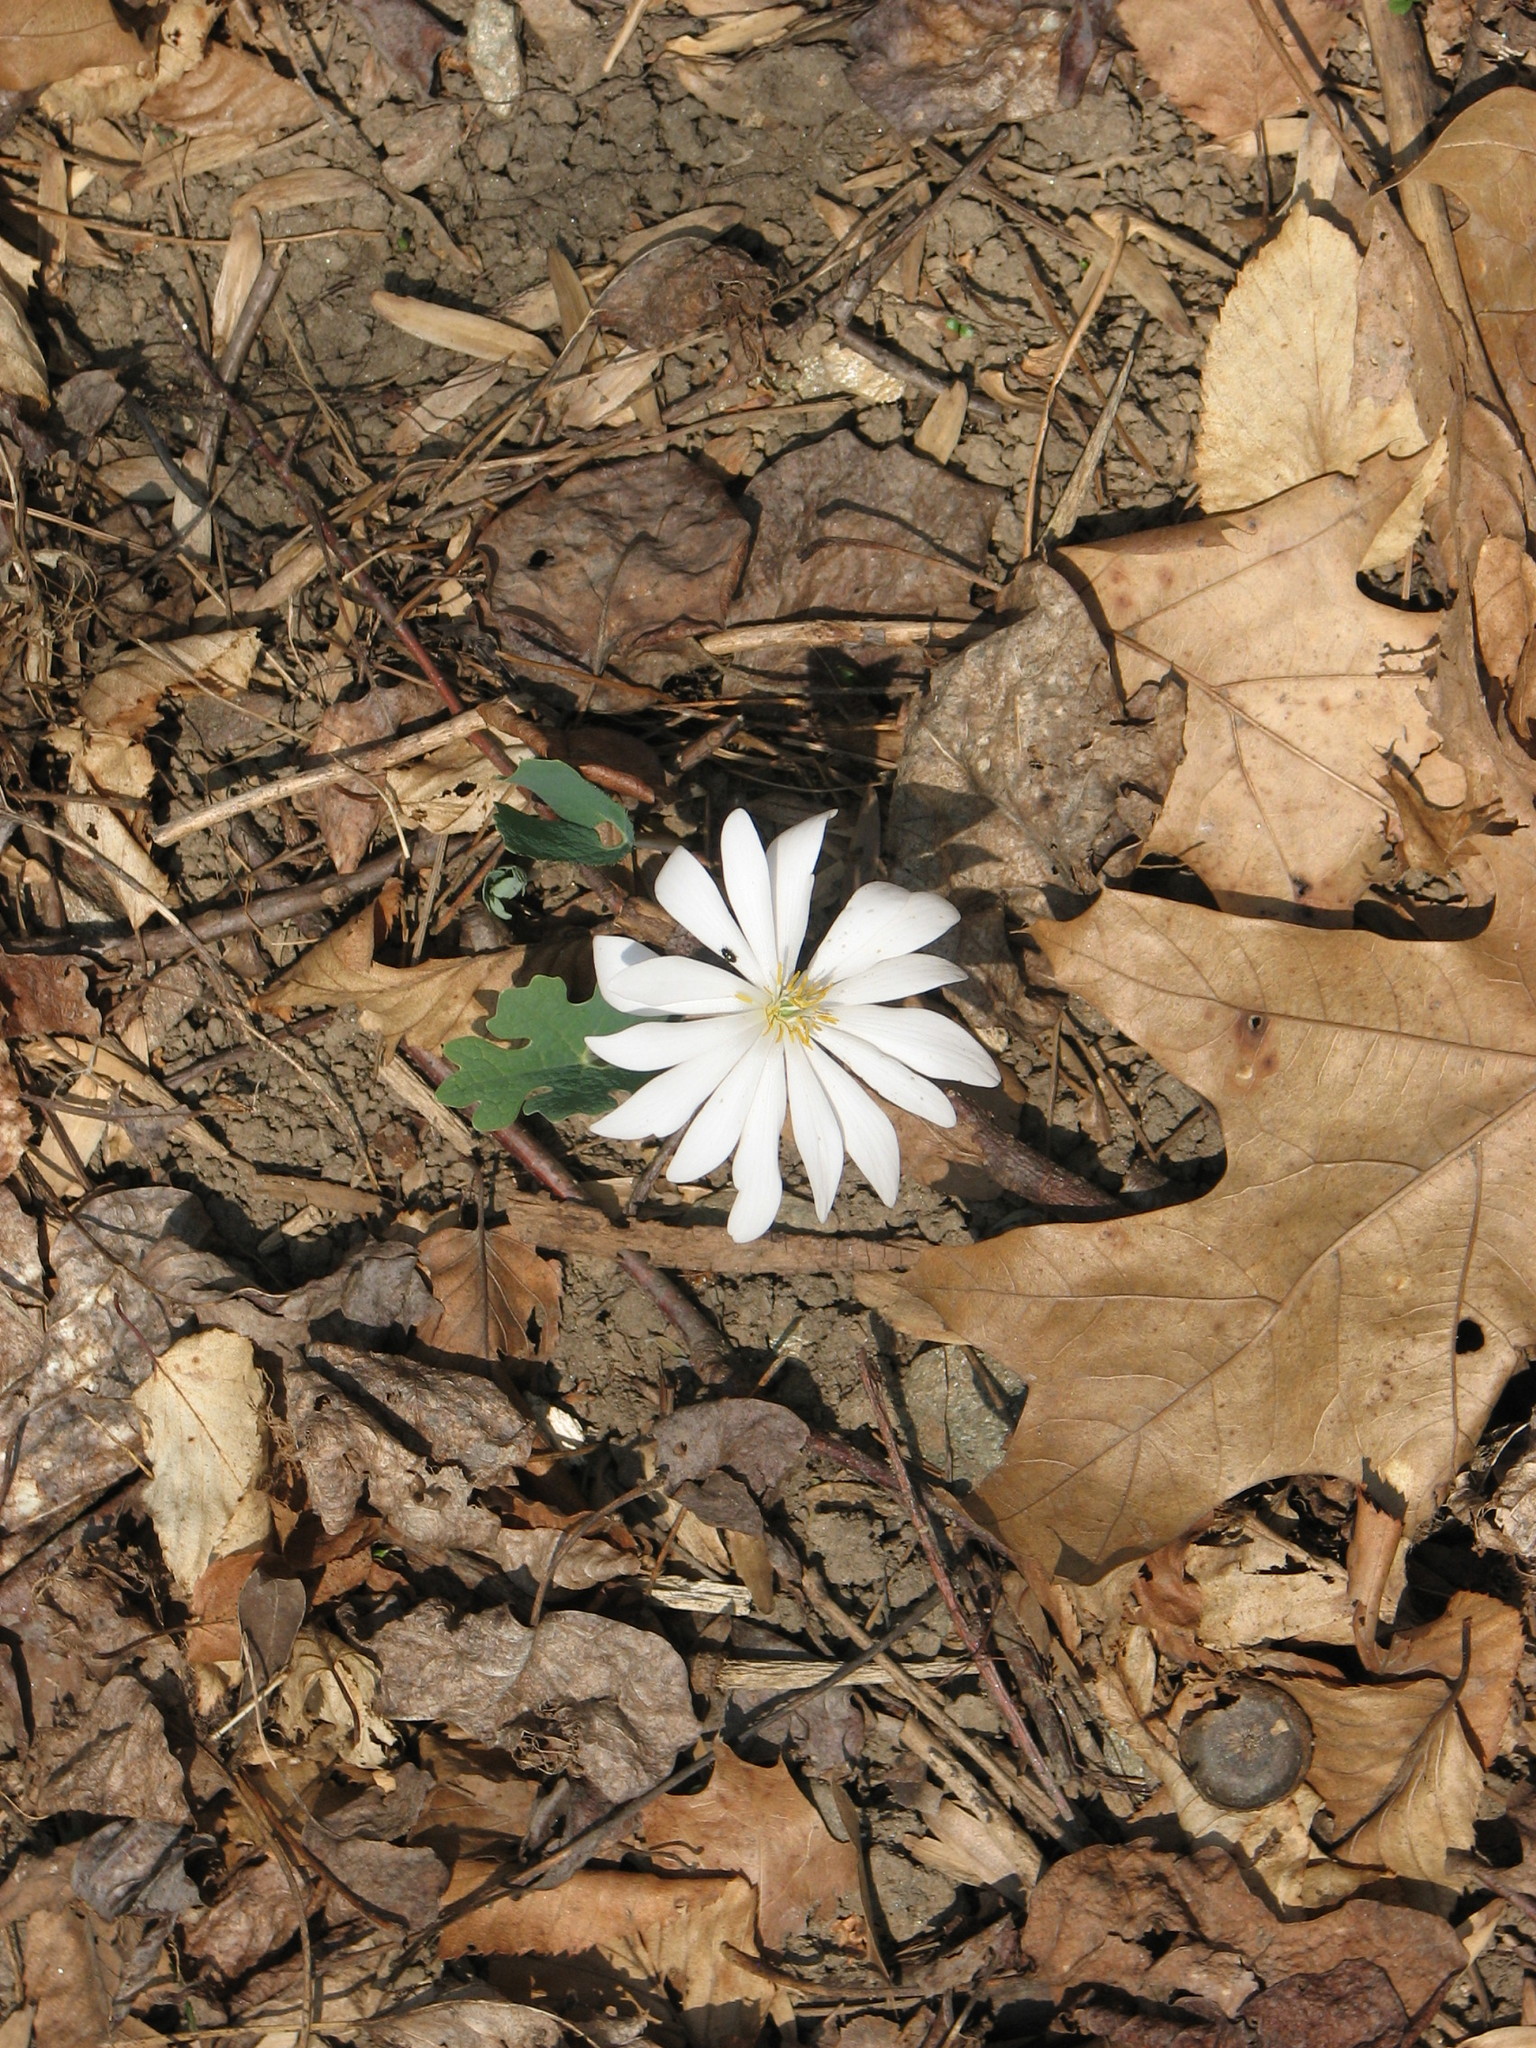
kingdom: Plantae
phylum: Tracheophyta
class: Magnoliopsida
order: Ranunculales
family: Papaveraceae
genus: Sanguinaria
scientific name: Sanguinaria canadensis
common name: Bloodroot
